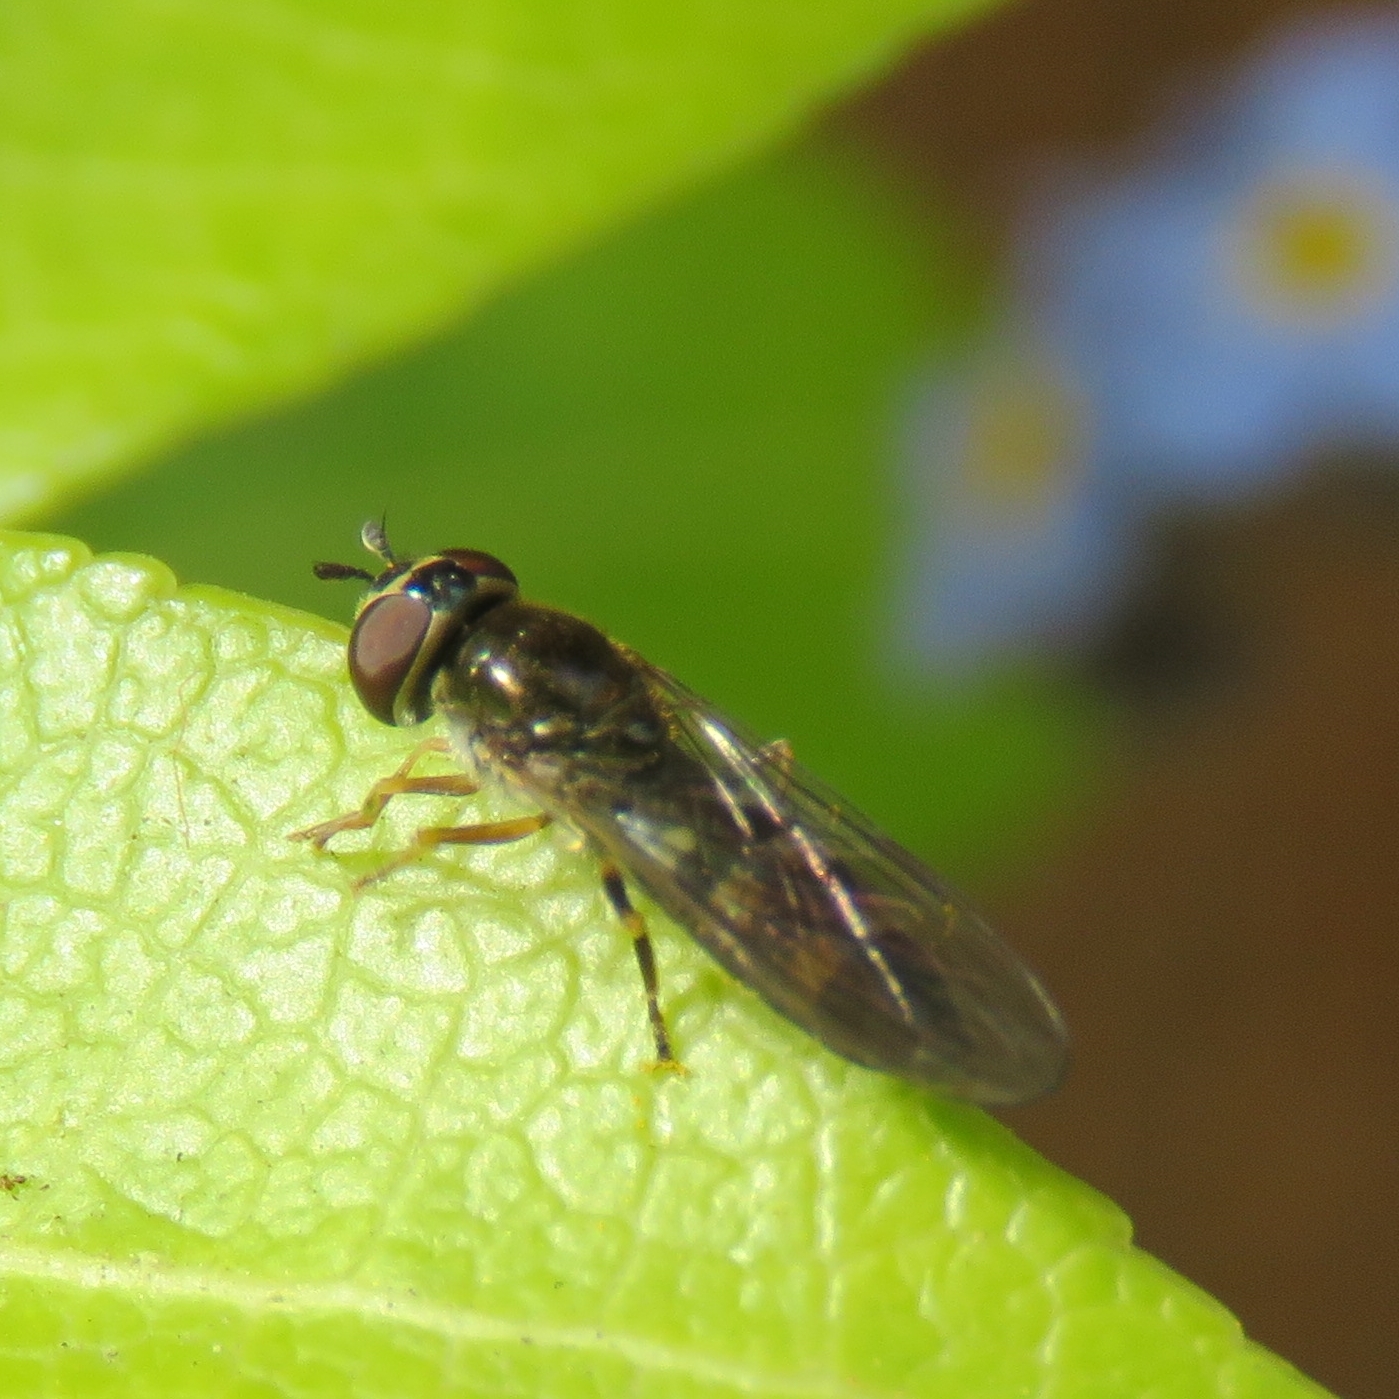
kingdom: Animalia
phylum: Arthropoda
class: Insecta
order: Diptera
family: Syrphidae
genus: Platycheirus
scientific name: Platycheirus
